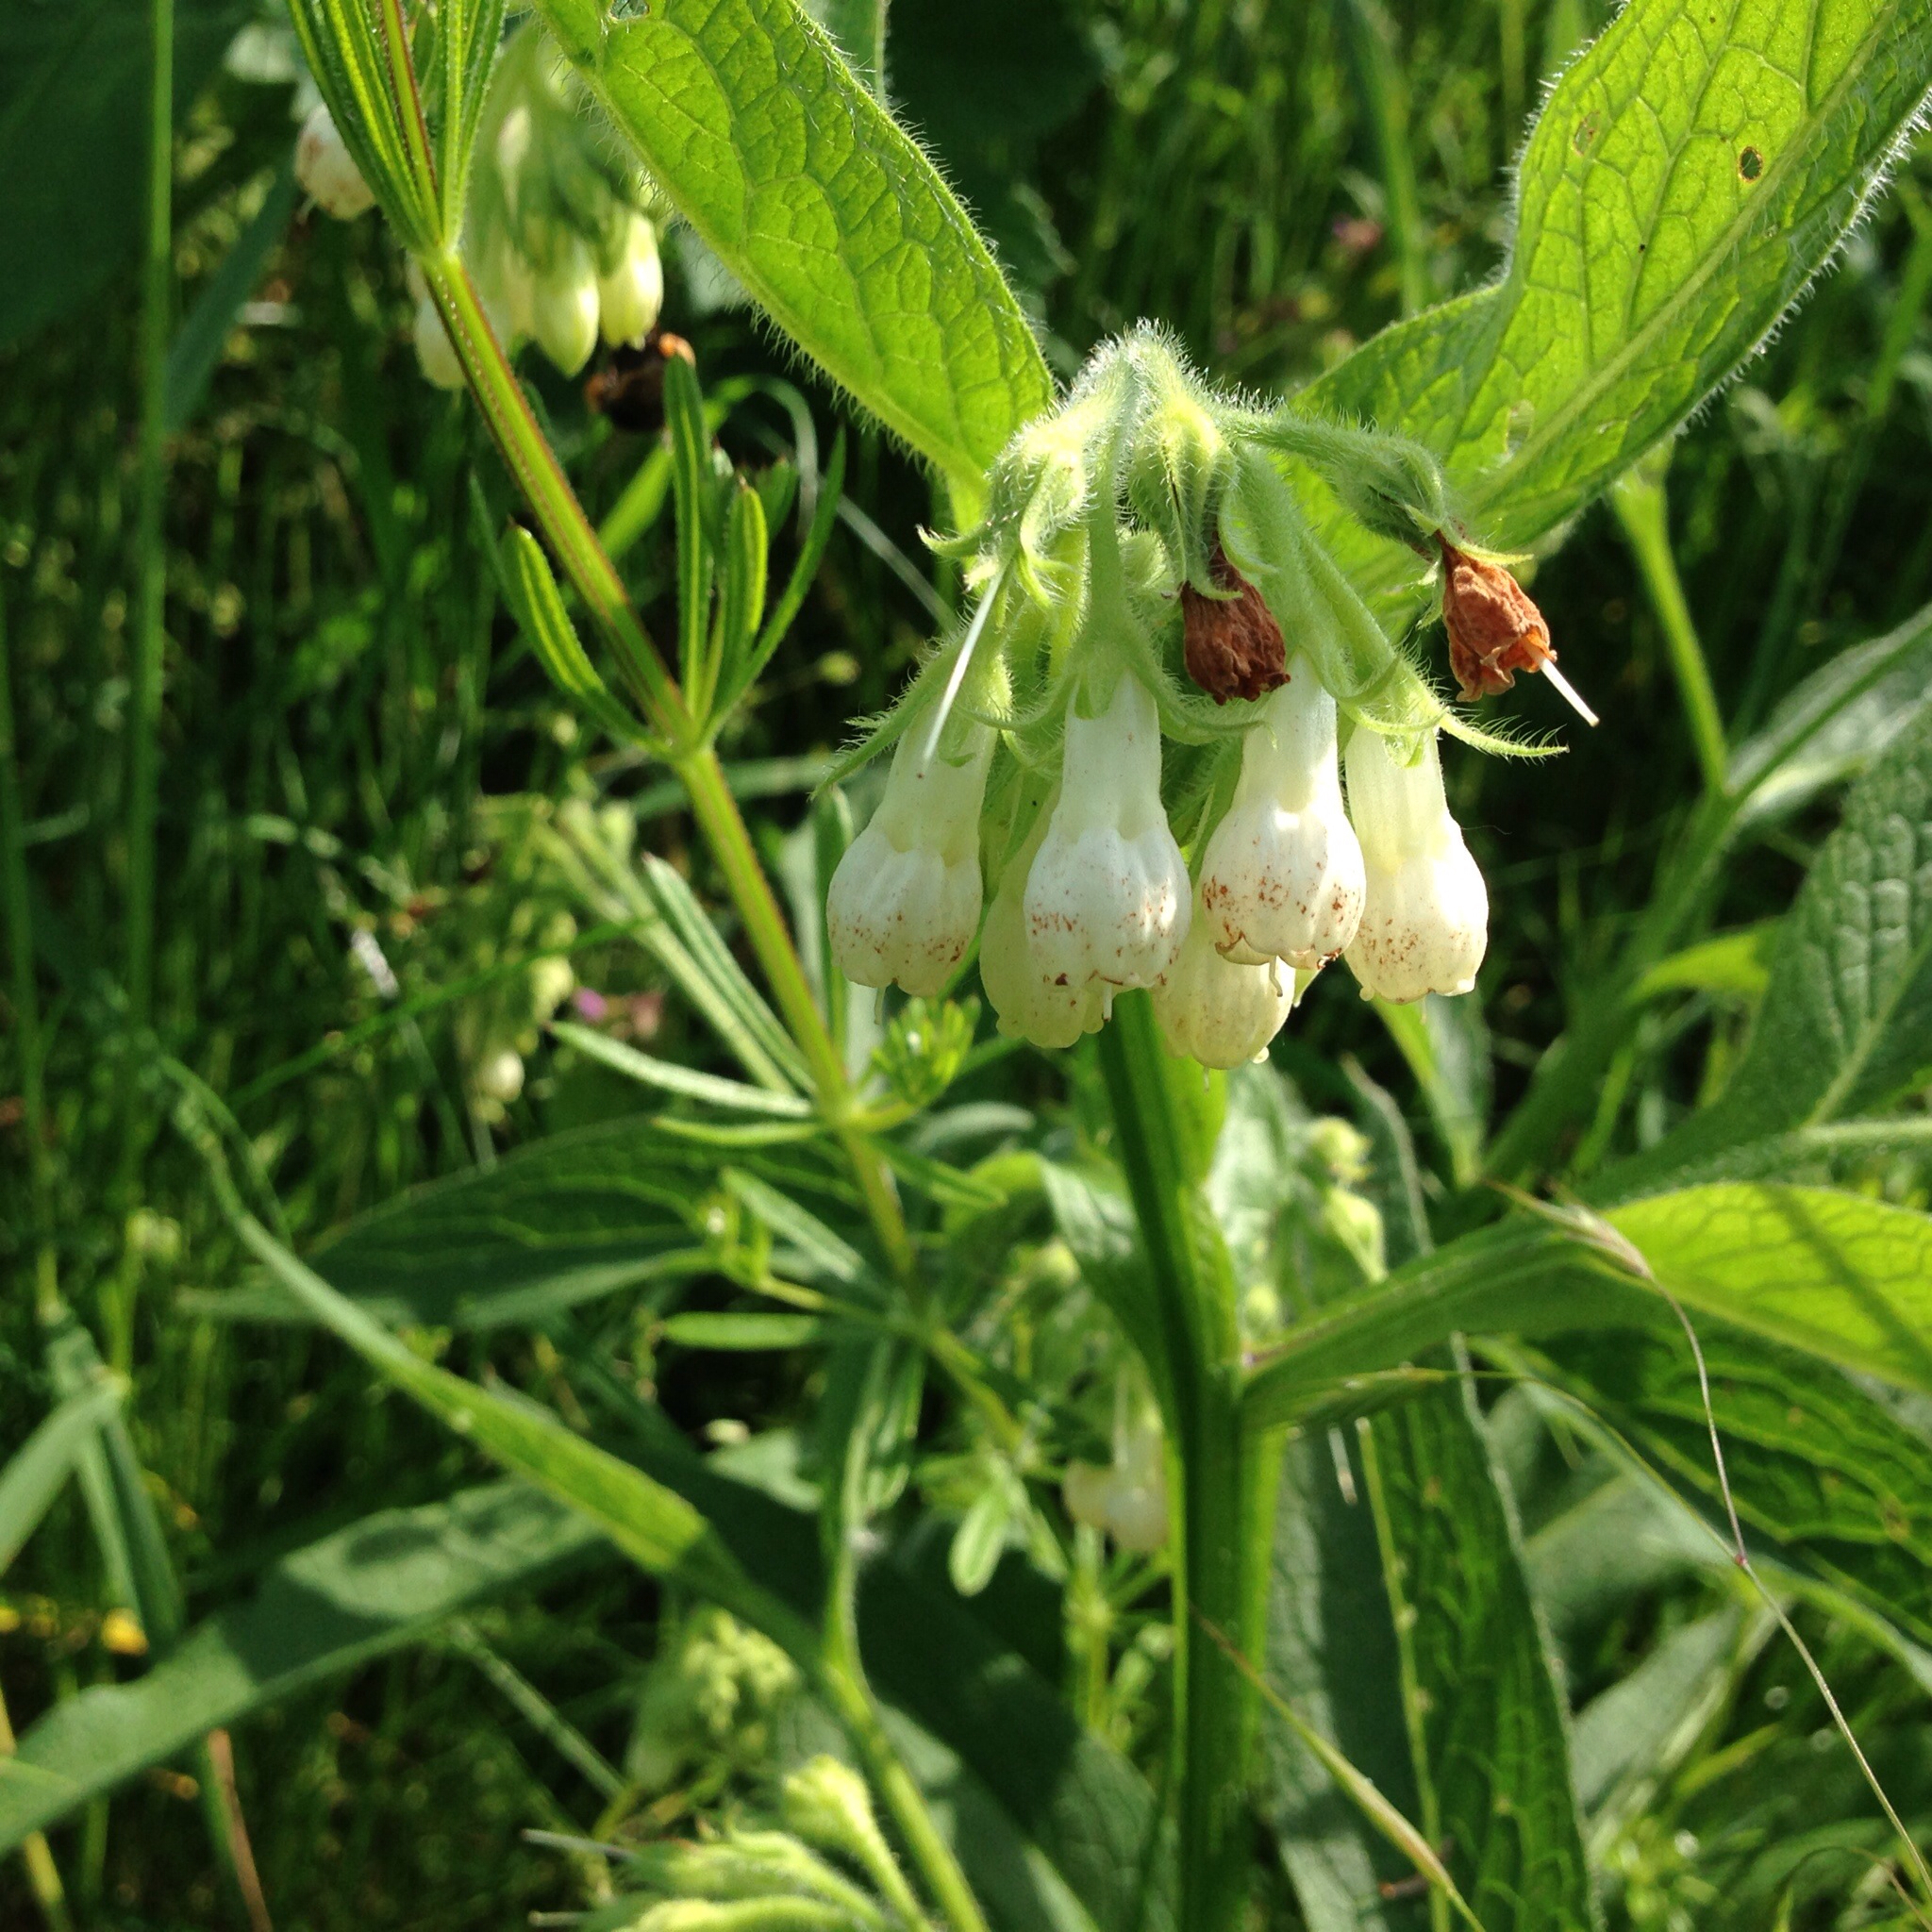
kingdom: Plantae
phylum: Tracheophyta
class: Magnoliopsida
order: Boraginales
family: Boraginaceae
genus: Symphytum
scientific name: Symphytum officinale
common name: Common comfrey
